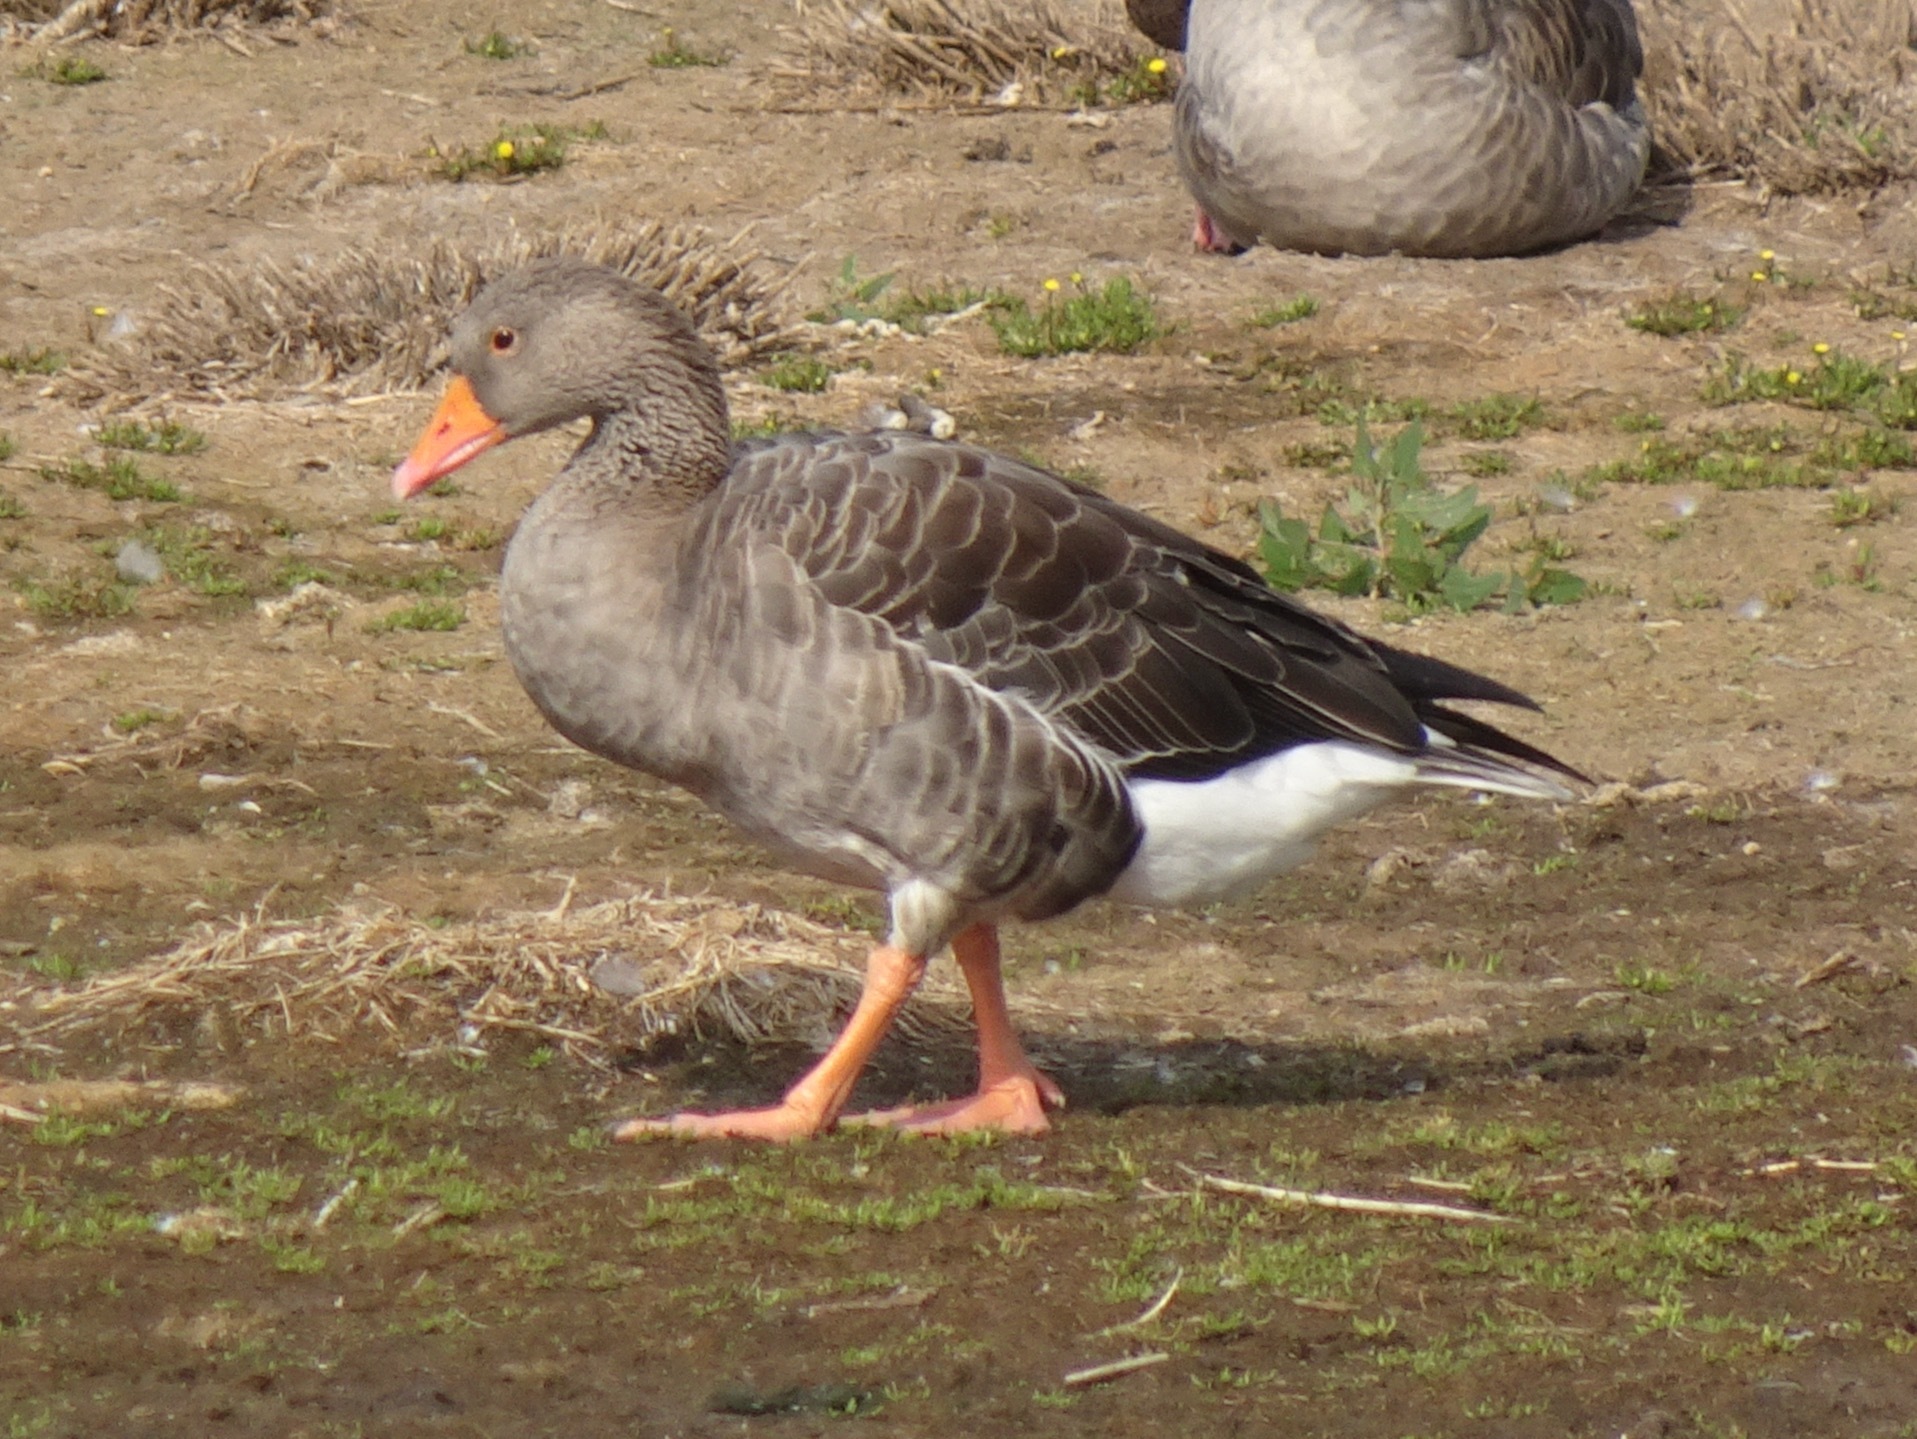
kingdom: Animalia
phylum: Chordata
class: Aves
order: Anseriformes
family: Anatidae
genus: Anser
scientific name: Anser anser
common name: Greylag goose
